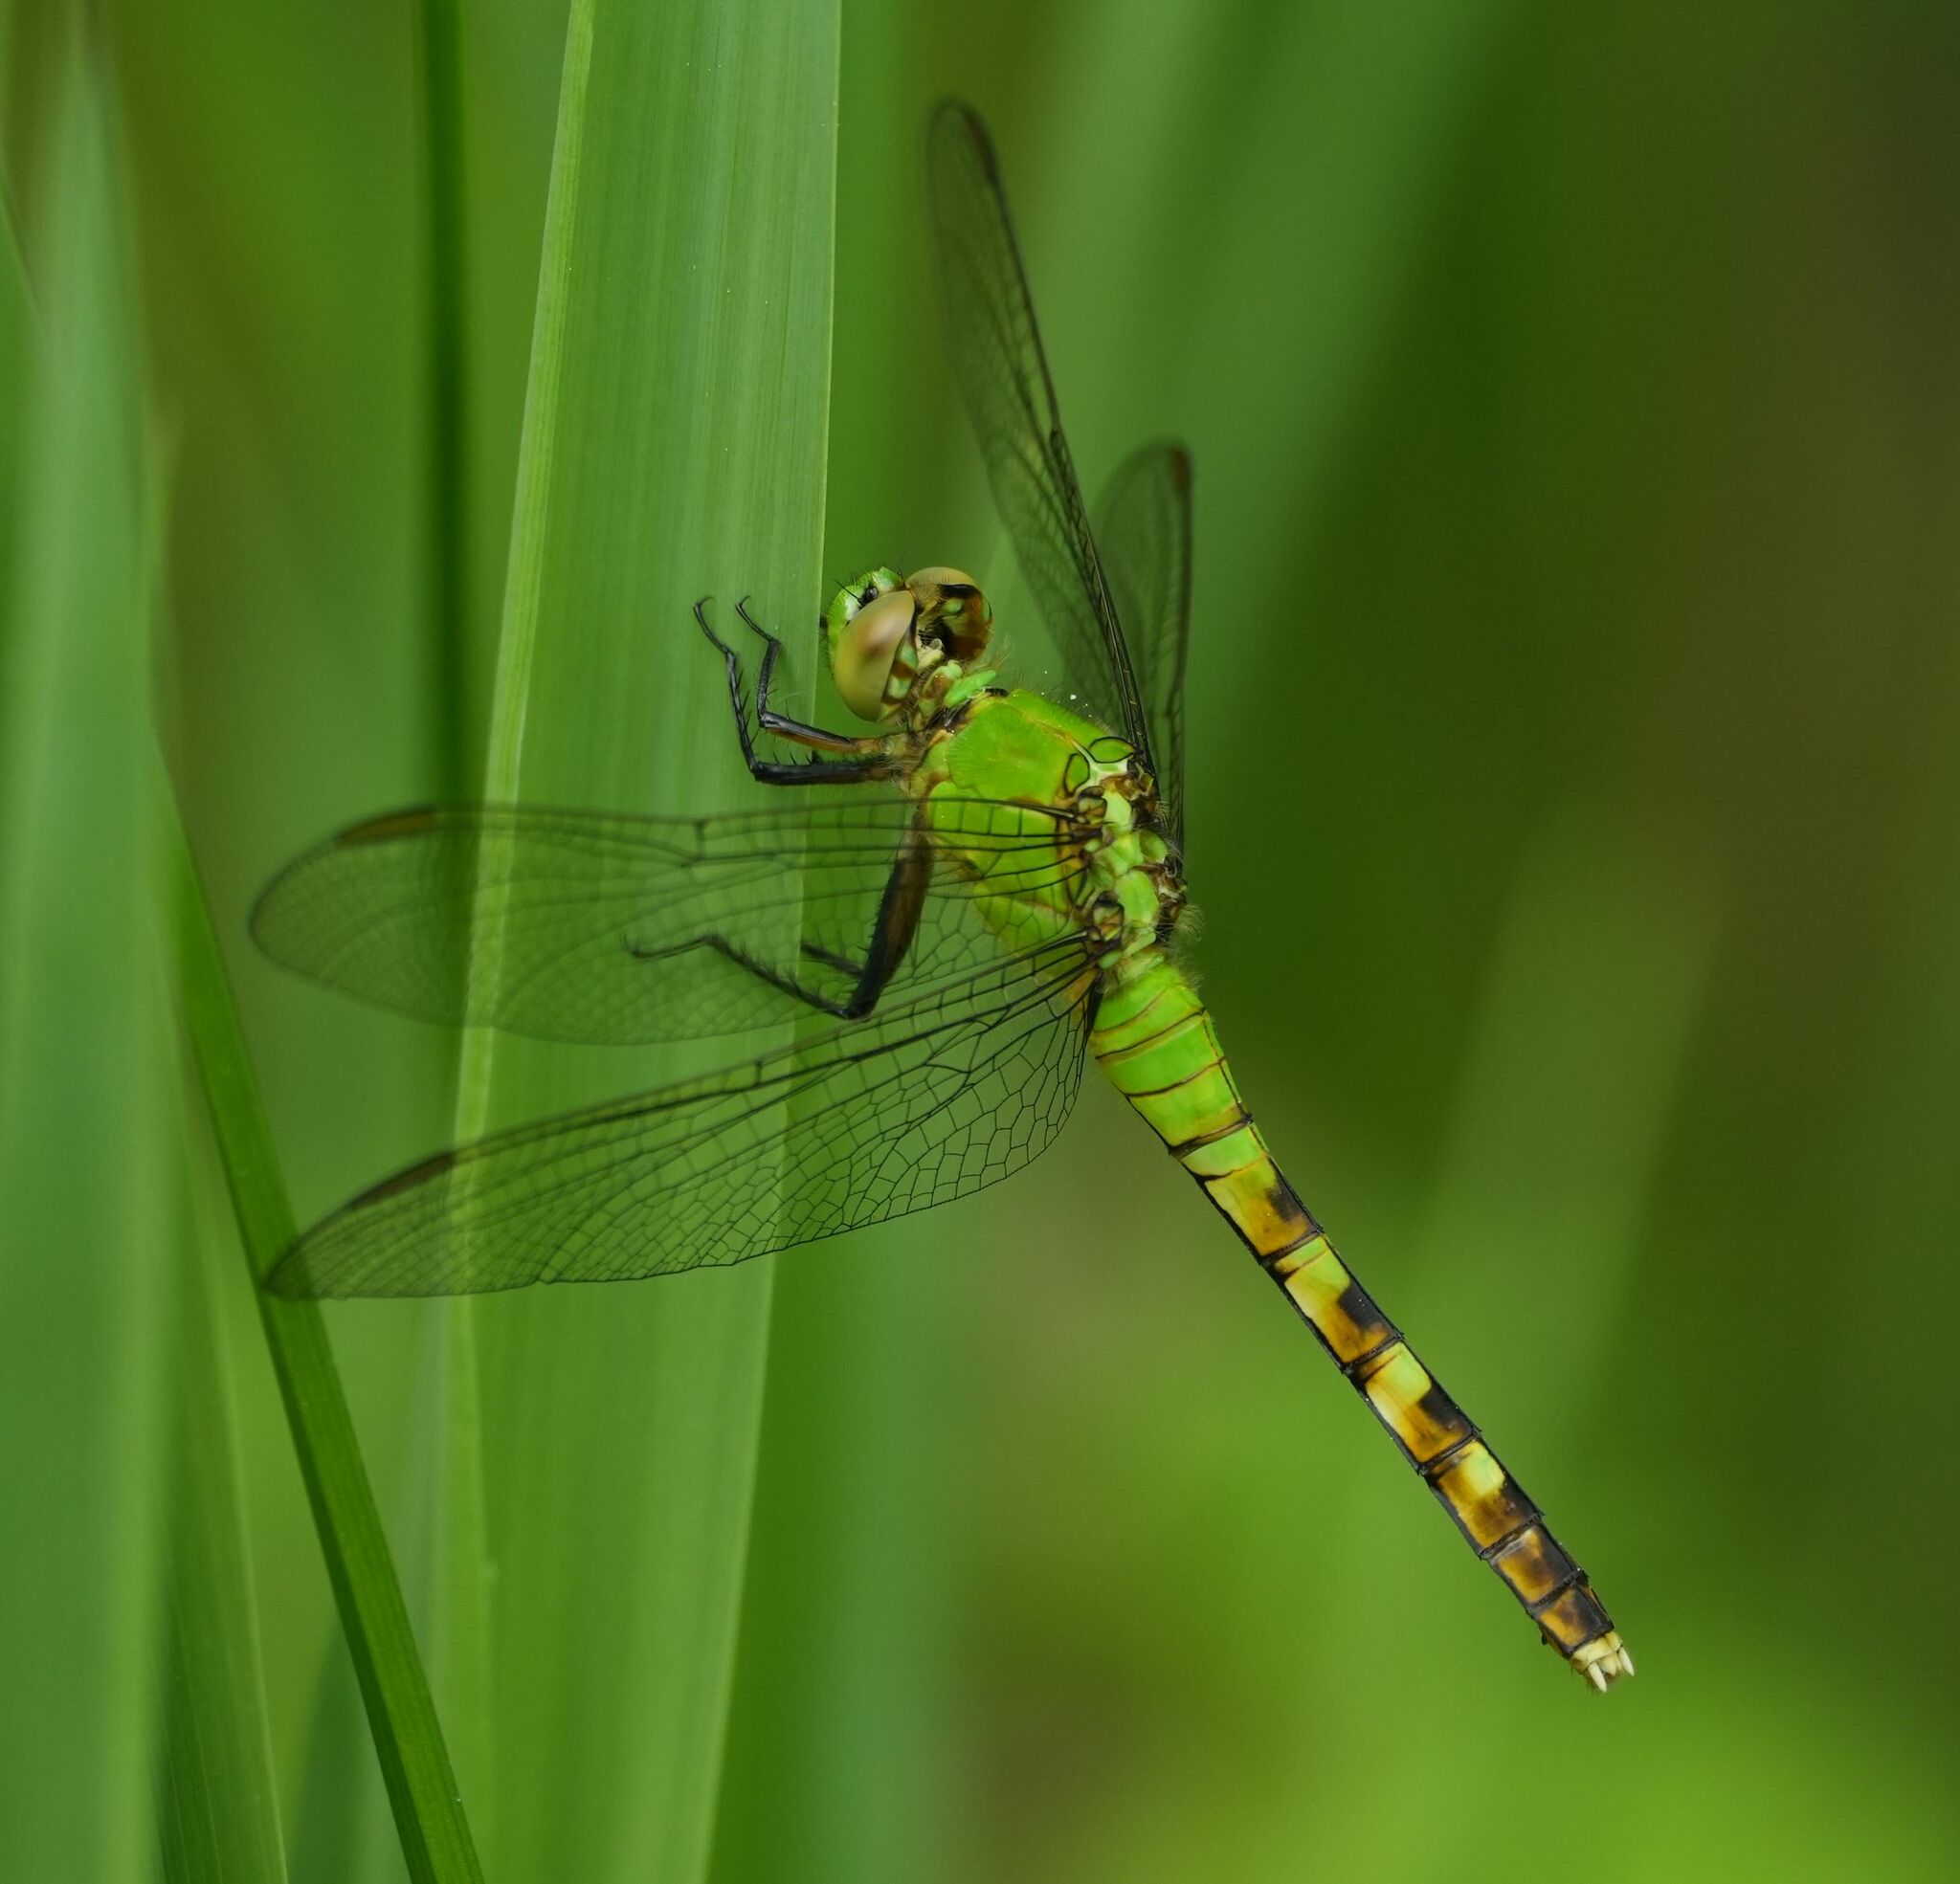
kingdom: Animalia
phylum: Arthropoda
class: Insecta
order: Odonata
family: Libellulidae
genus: Erythemis
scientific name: Erythemis simplicicollis
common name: Eastern pondhawk
